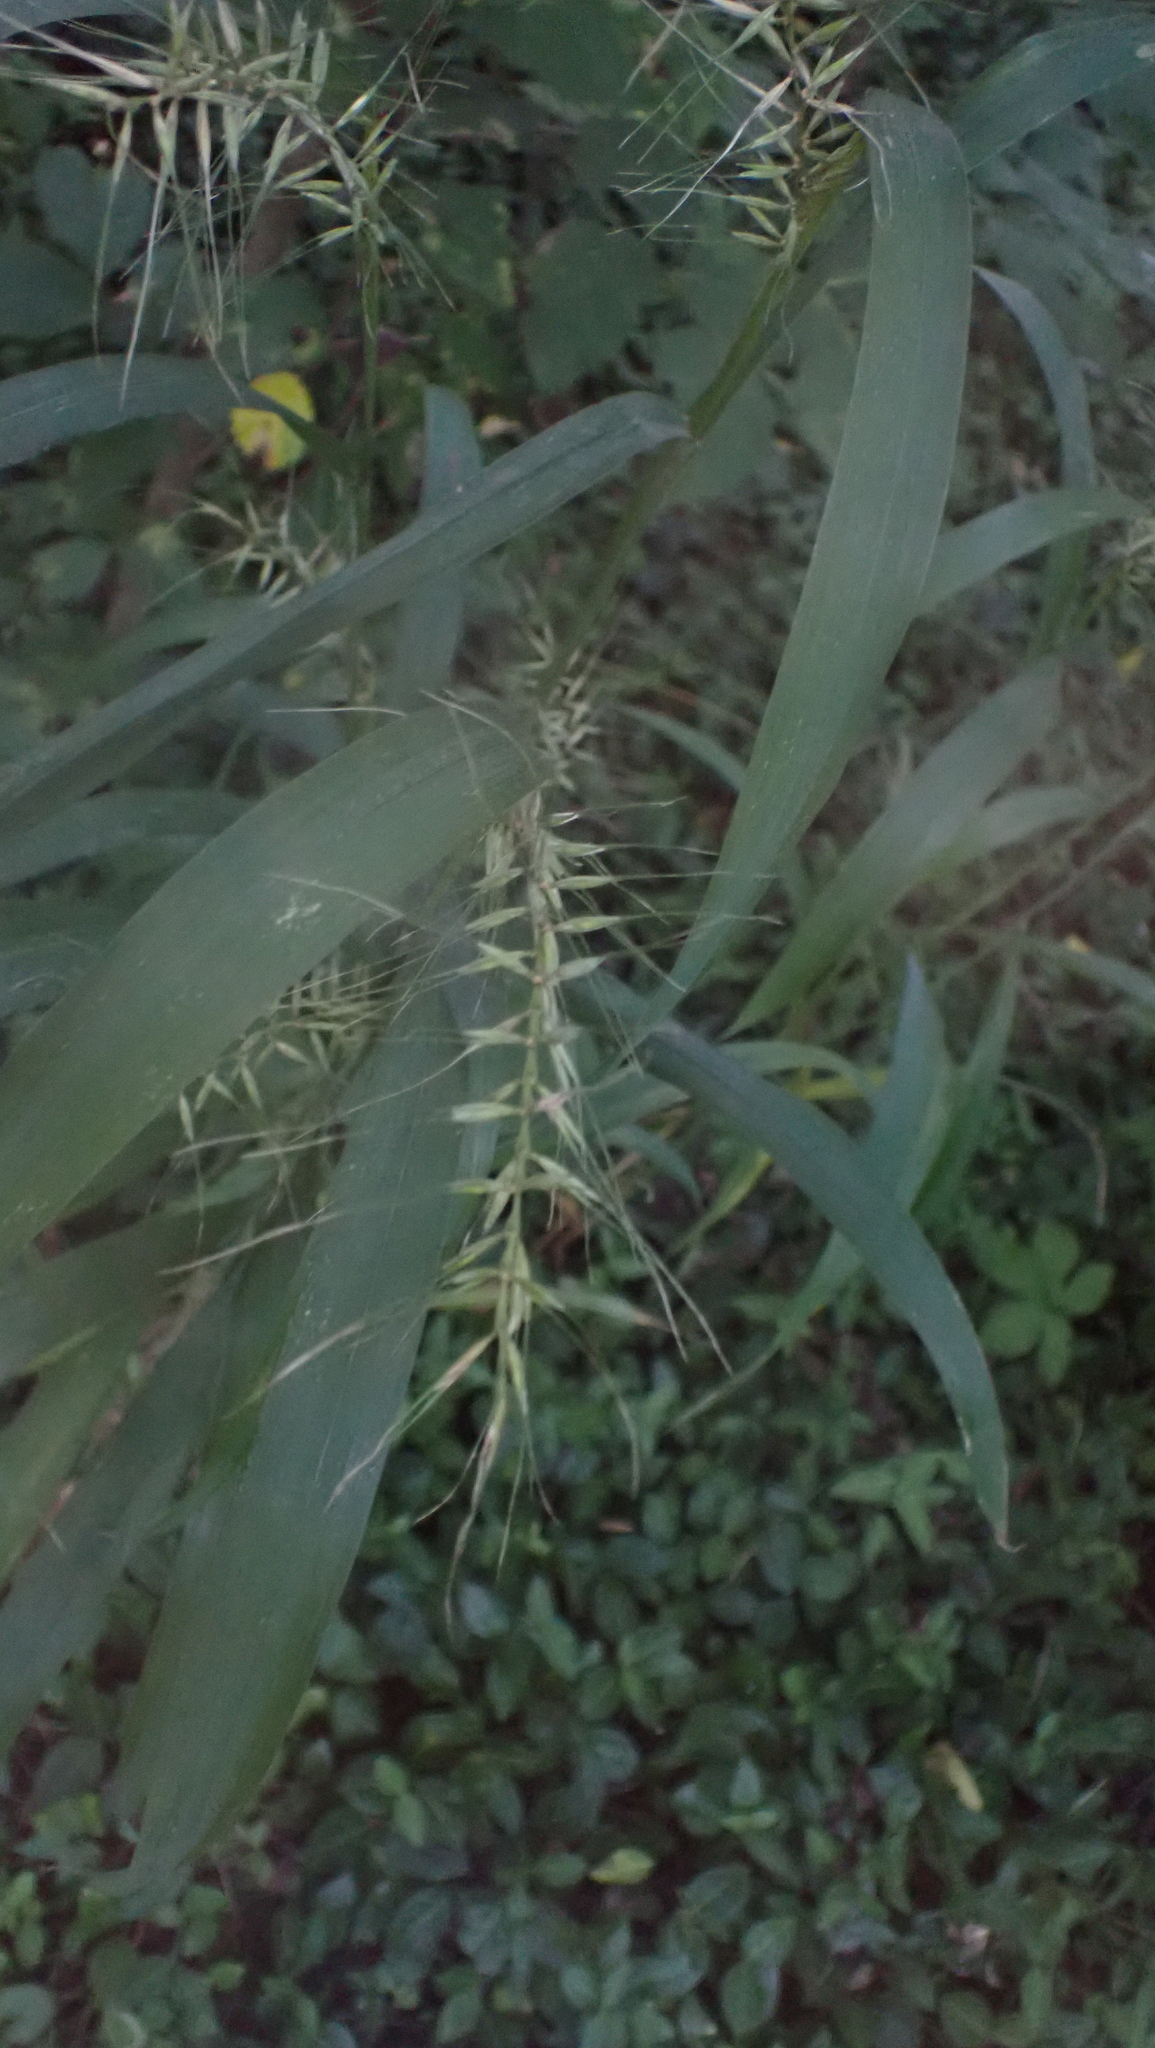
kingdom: Plantae
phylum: Tracheophyta
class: Liliopsida
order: Poales
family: Poaceae
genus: Elymus
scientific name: Elymus hystrix
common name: Bottlebrush grass
